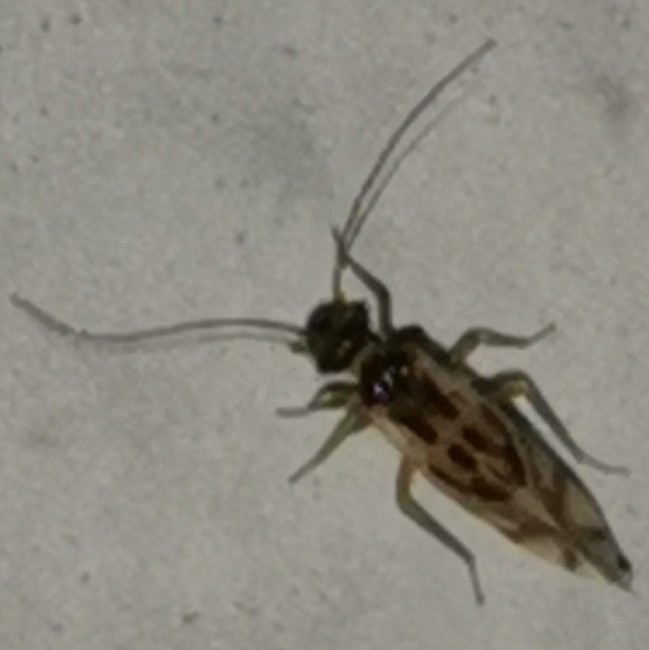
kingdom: Animalia
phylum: Arthropoda
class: Insecta
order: Psocodea
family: Stenopsocidae
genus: Graphopsocus
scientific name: Graphopsocus cruciatus
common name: Lizard bark louse
